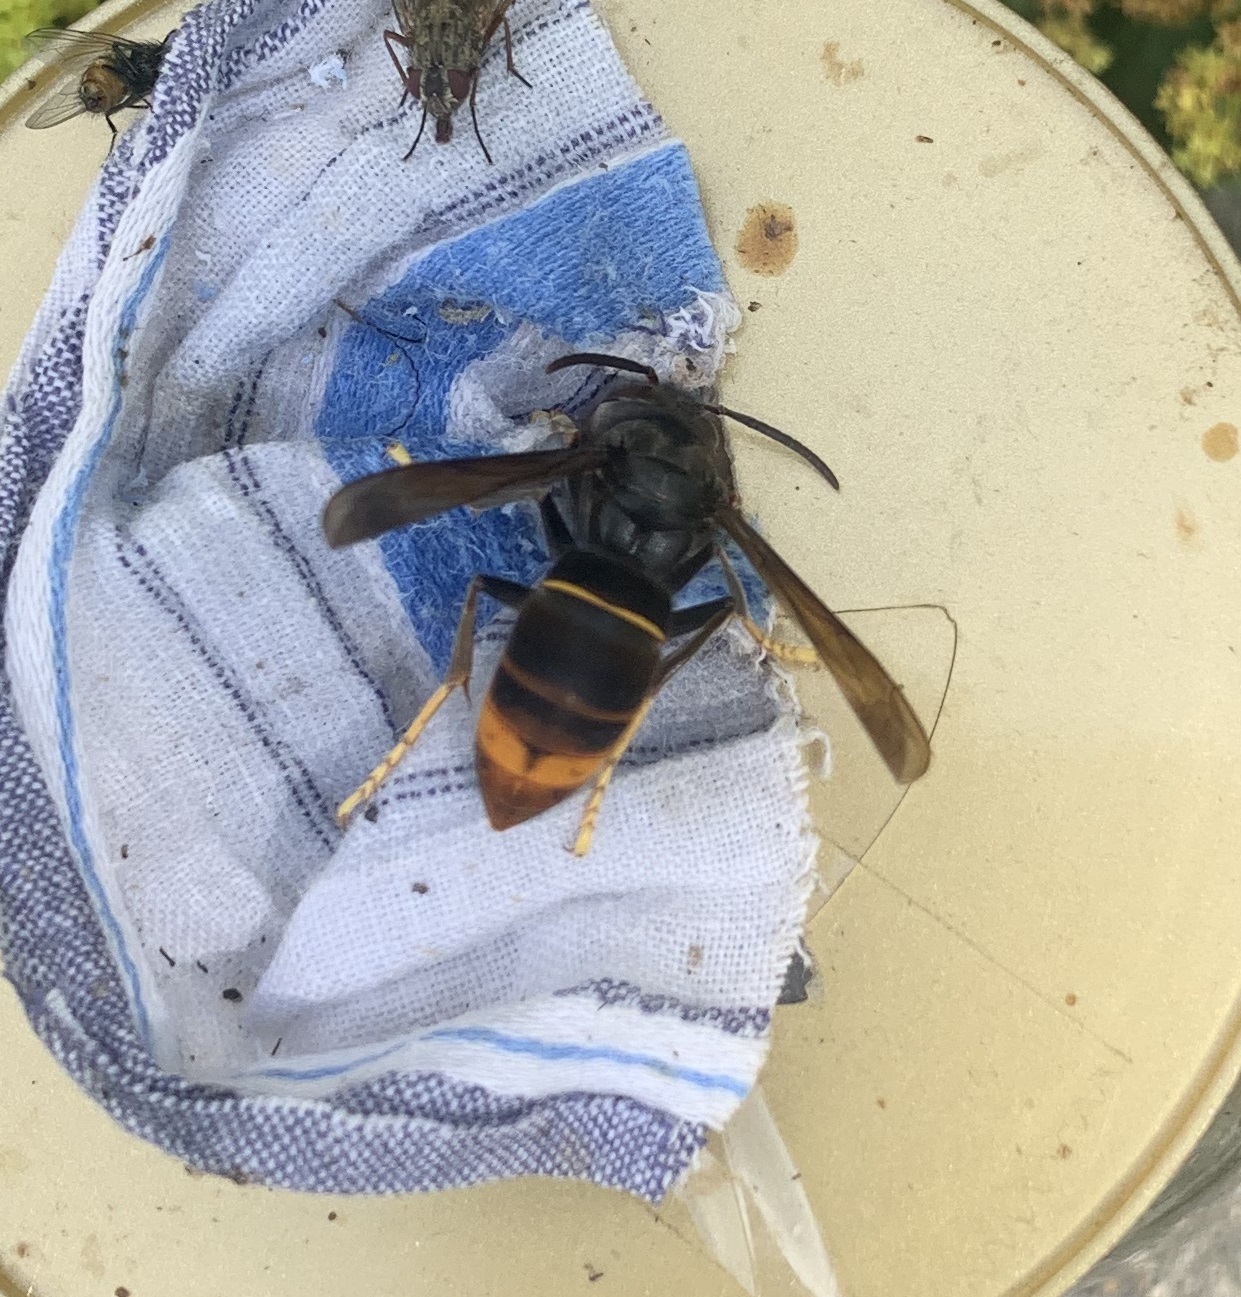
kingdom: Animalia
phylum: Arthropoda
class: Insecta
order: Hymenoptera
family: Vespidae
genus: Vespa
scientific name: Vespa velutina
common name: Asian hornet
